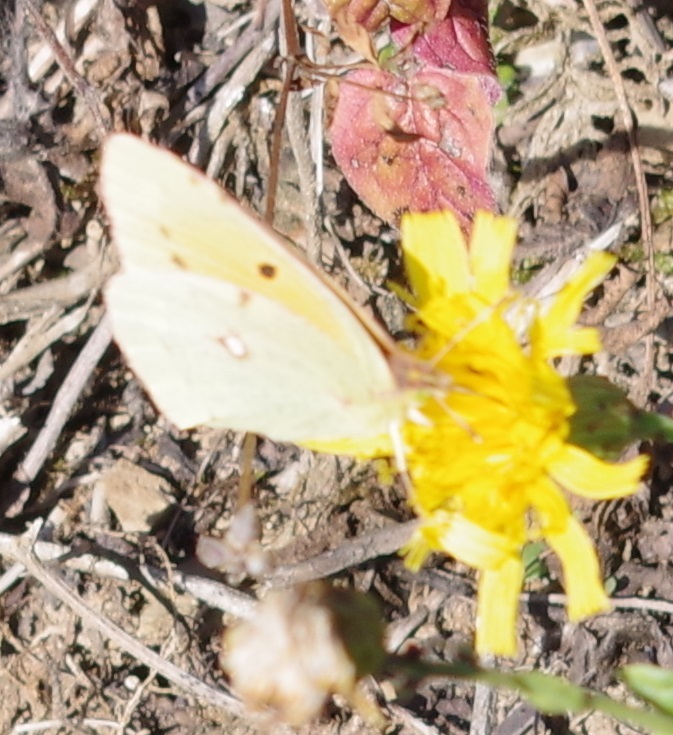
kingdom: Animalia
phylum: Arthropoda
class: Insecta
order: Lepidoptera
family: Pieridae
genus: Colias
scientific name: Colias croceus
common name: Clouded yellow
